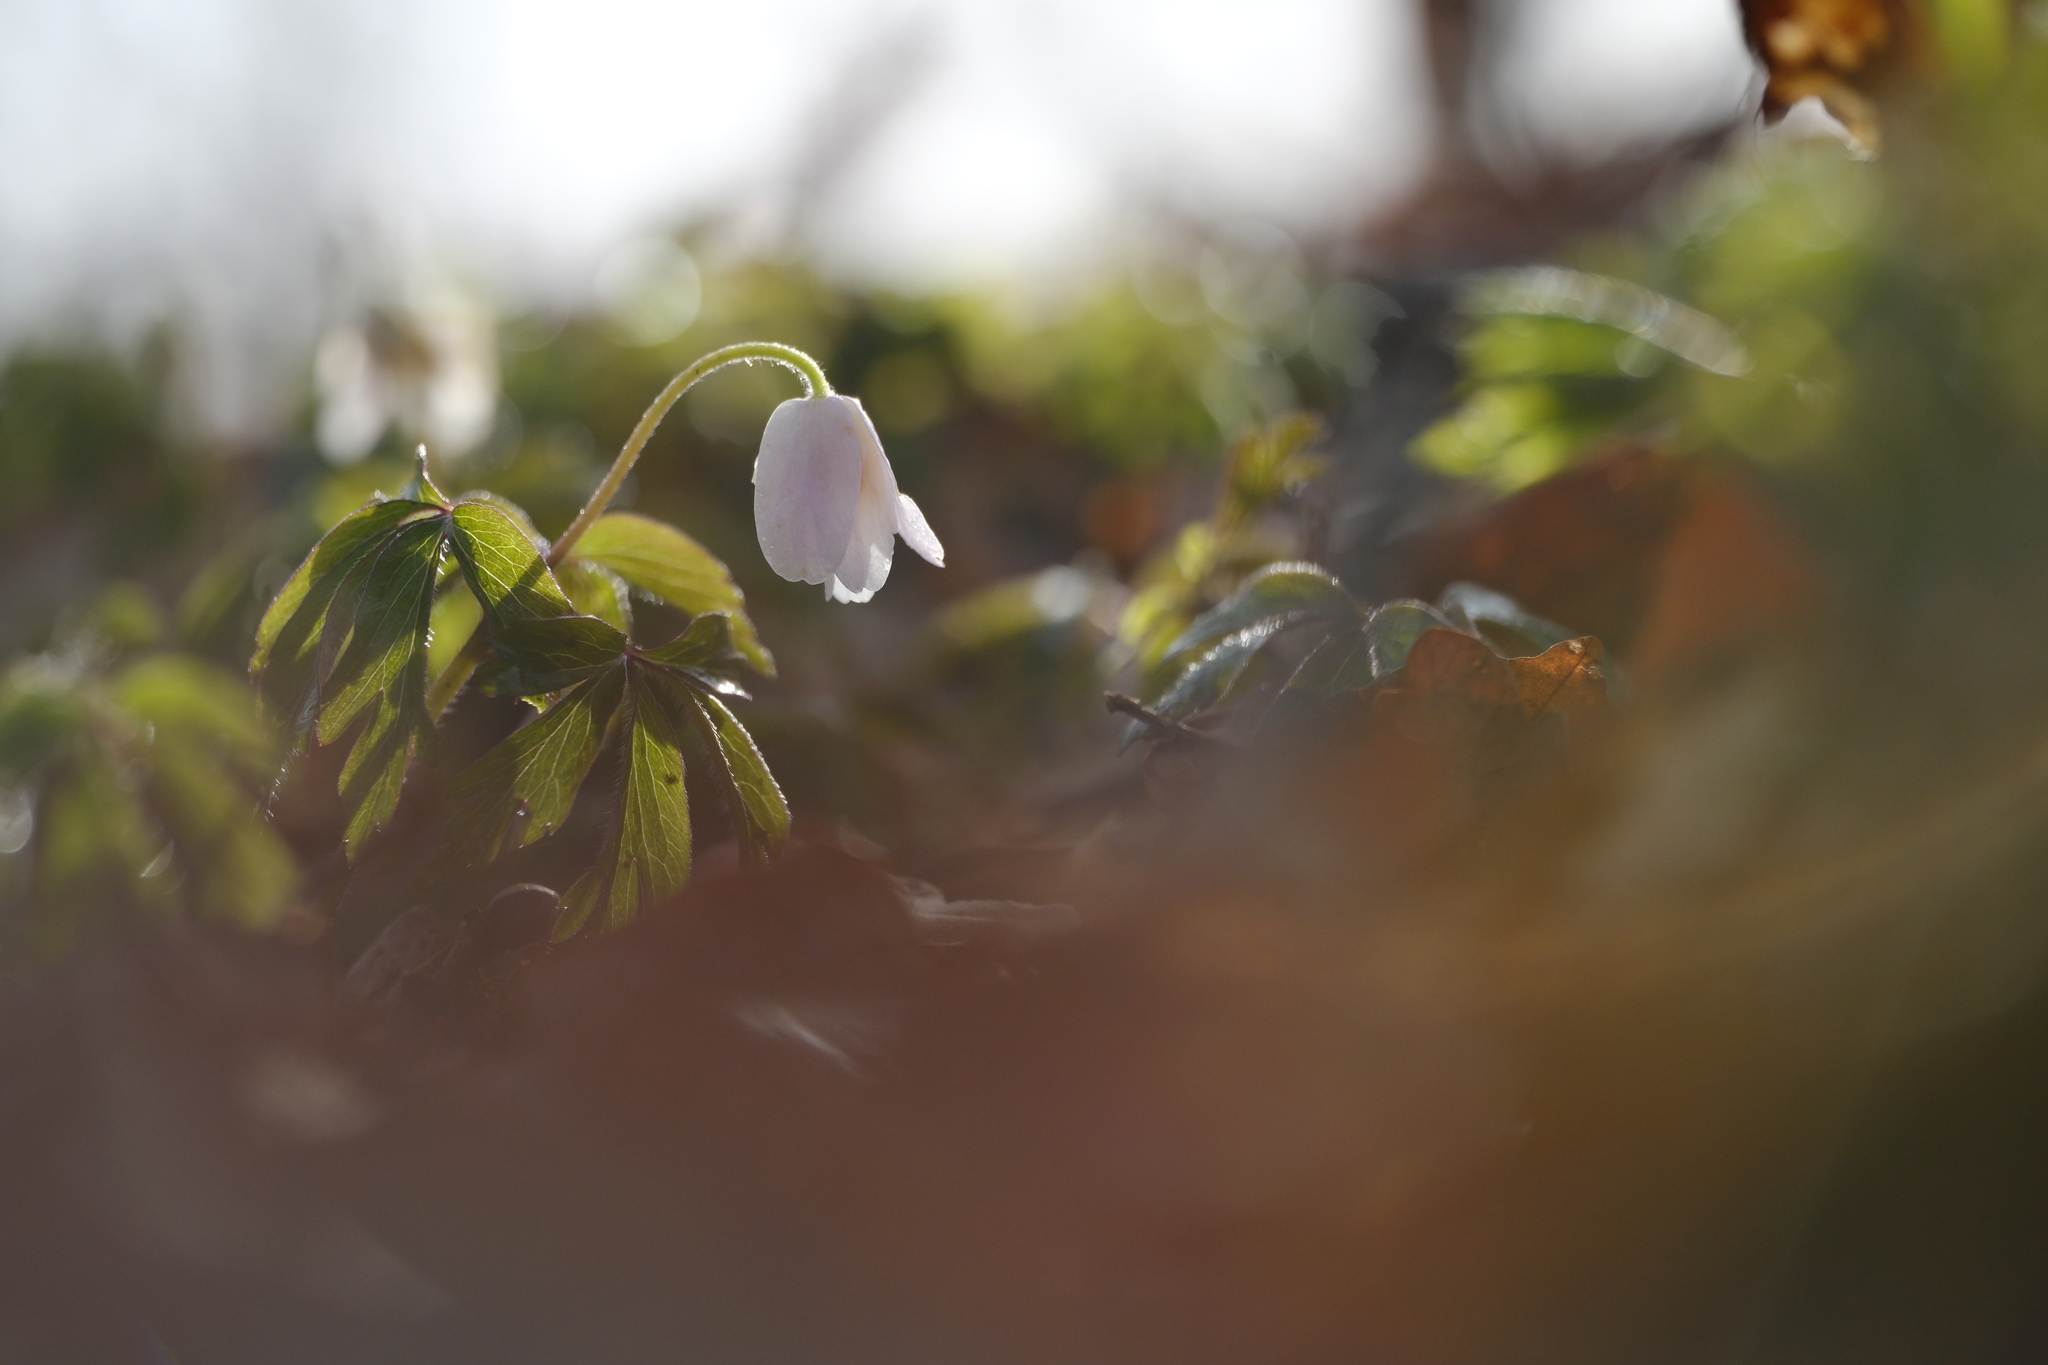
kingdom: Plantae
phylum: Tracheophyta
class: Magnoliopsida
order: Ranunculales
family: Ranunculaceae
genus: Anemone
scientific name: Anemone nemorosa
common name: Wood anemone
